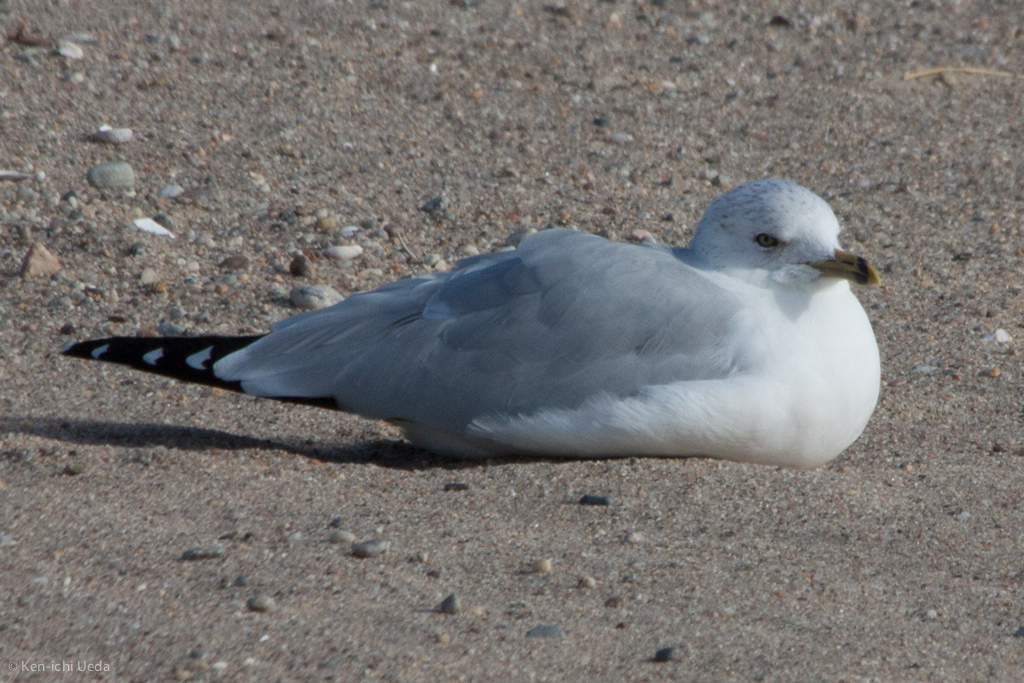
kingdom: Animalia
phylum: Chordata
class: Aves
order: Charadriiformes
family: Laridae
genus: Larus
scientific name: Larus delawarensis
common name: Ring-billed gull
